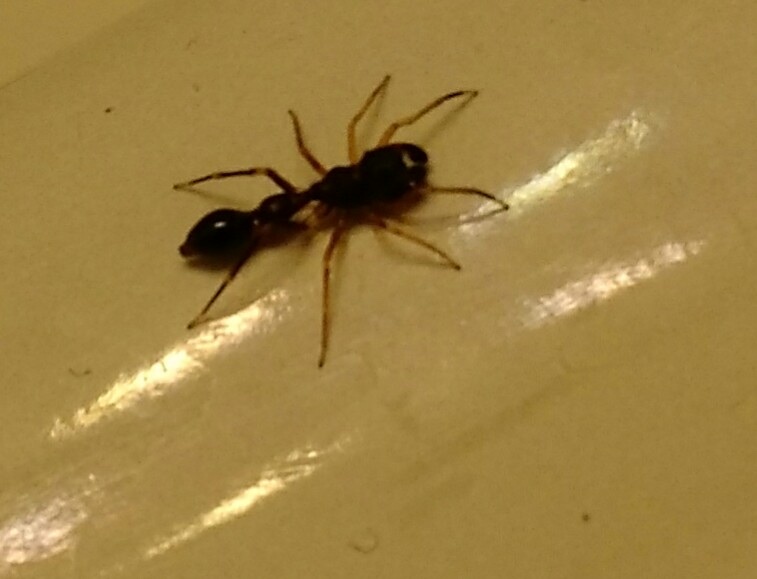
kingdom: Animalia
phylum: Arthropoda
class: Arachnida
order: Araneae
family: Salticidae
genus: Synemosyna
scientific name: Synemosyna formica
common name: Slender ant-mimic jumping spider
